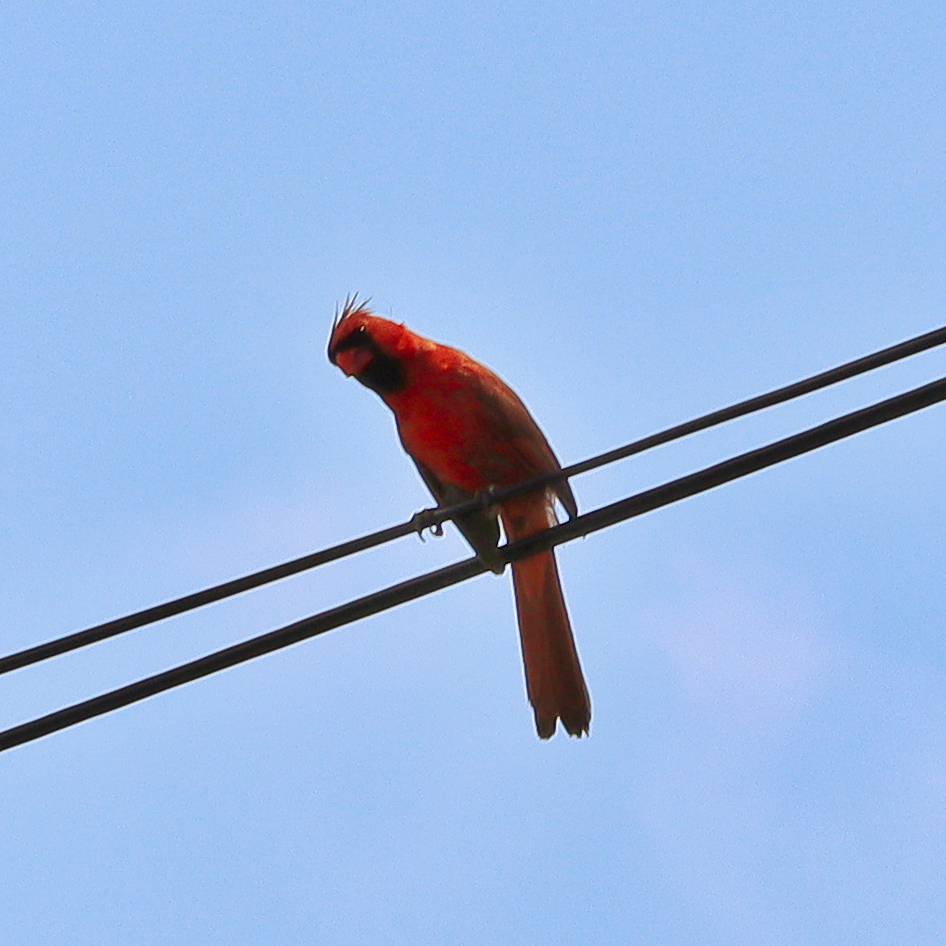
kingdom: Animalia
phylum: Chordata
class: Aves
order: Passeriformes
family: Cardinalidae
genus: Cardinalis
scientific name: Cardinalis cardinalis
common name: Northern cardinal
